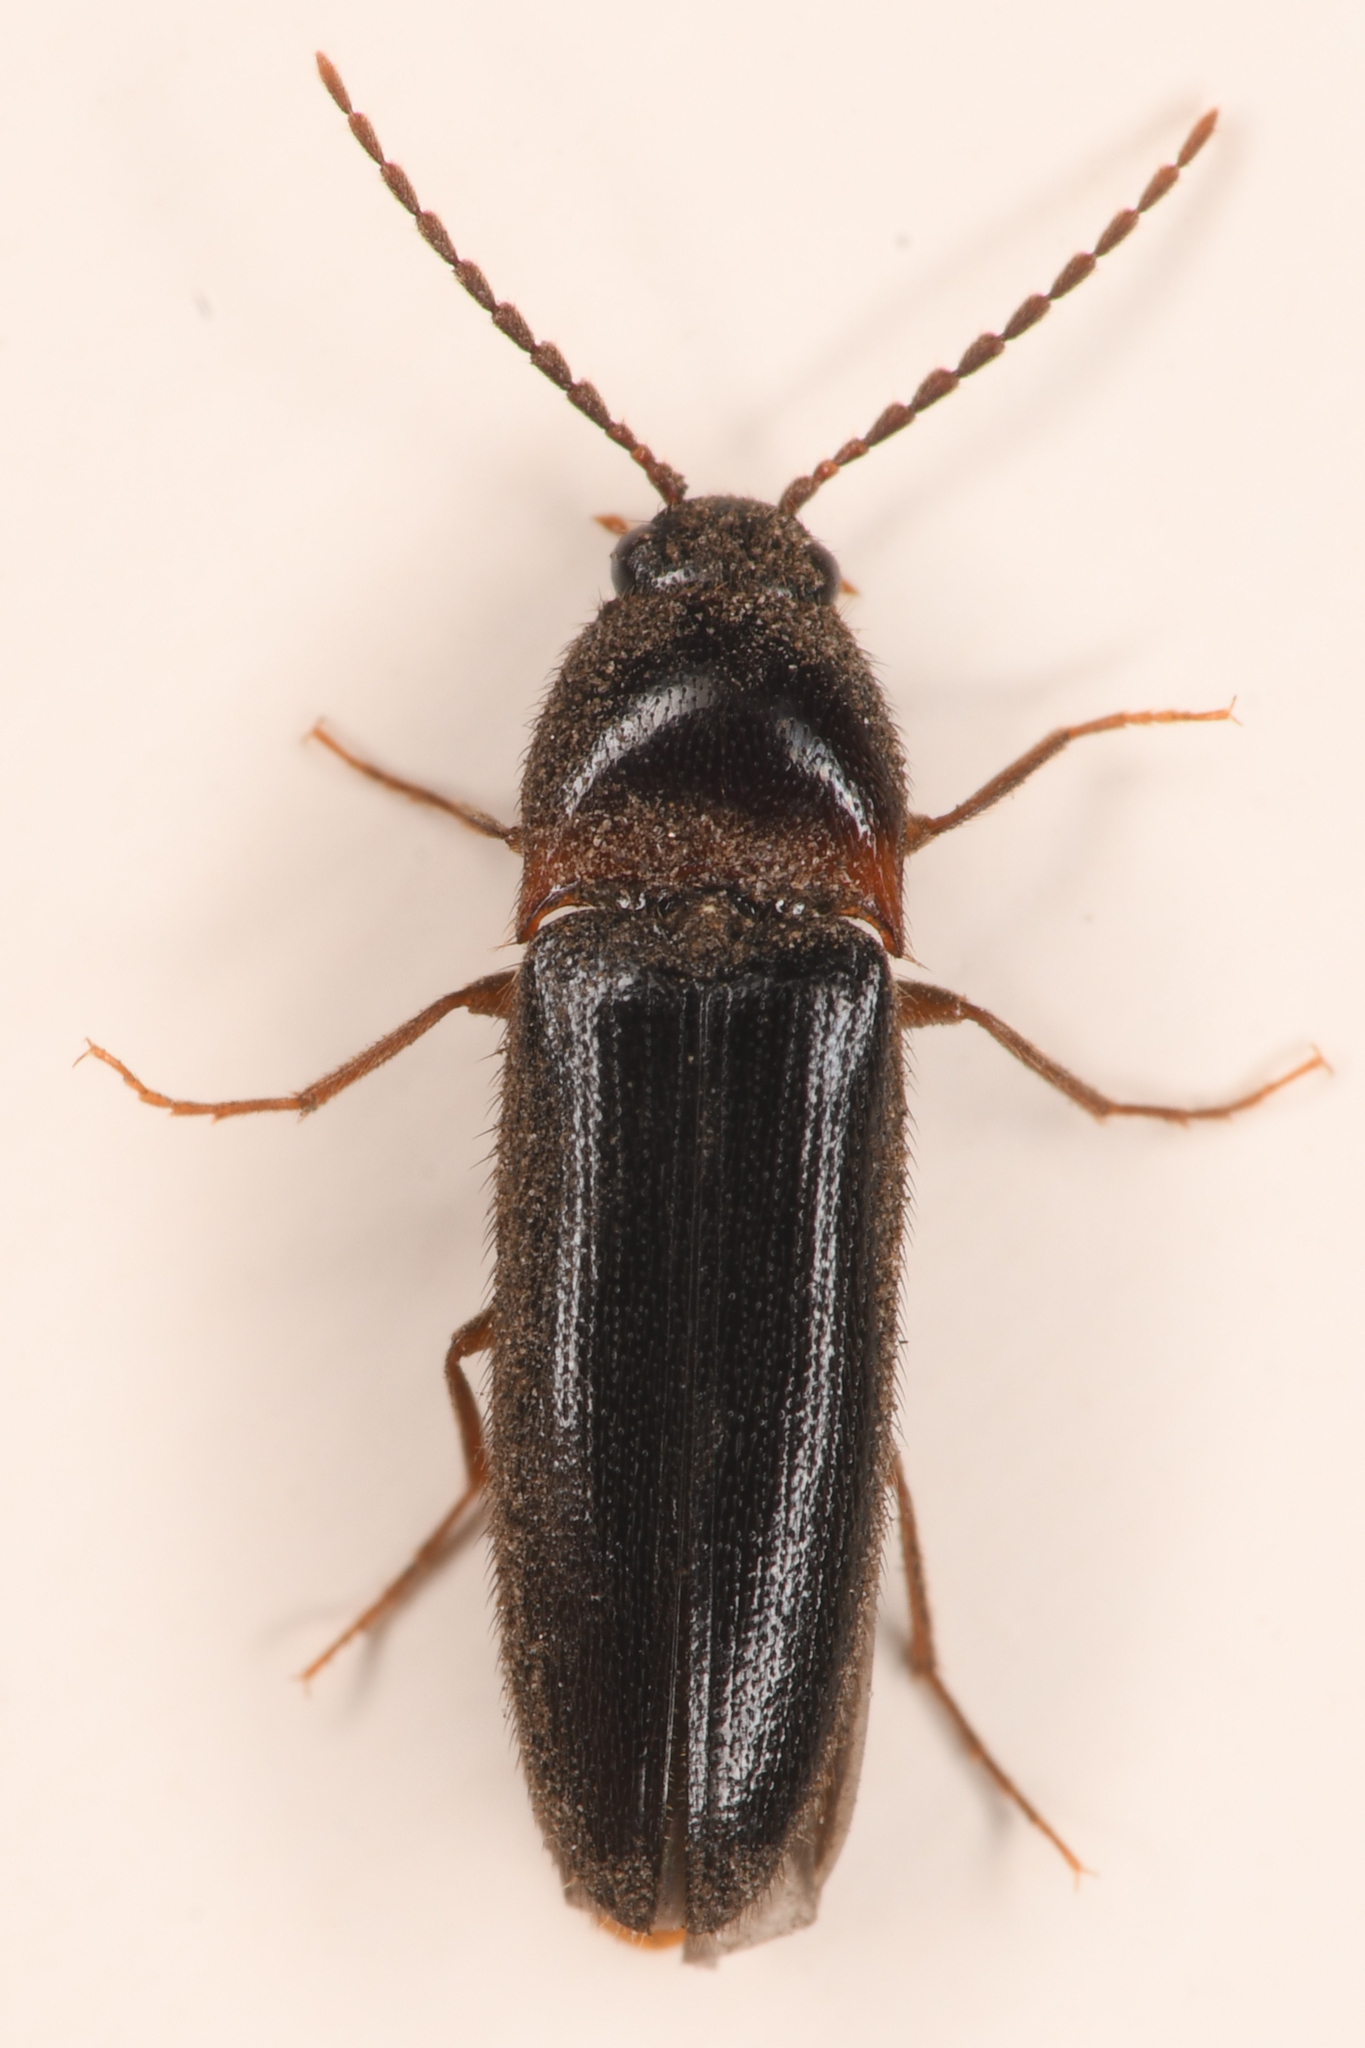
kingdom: Animalia
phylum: Arthropoda
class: Insecta
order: Coleoptera
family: Elateridae
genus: Ampedus
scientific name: Ampedus atripennis
